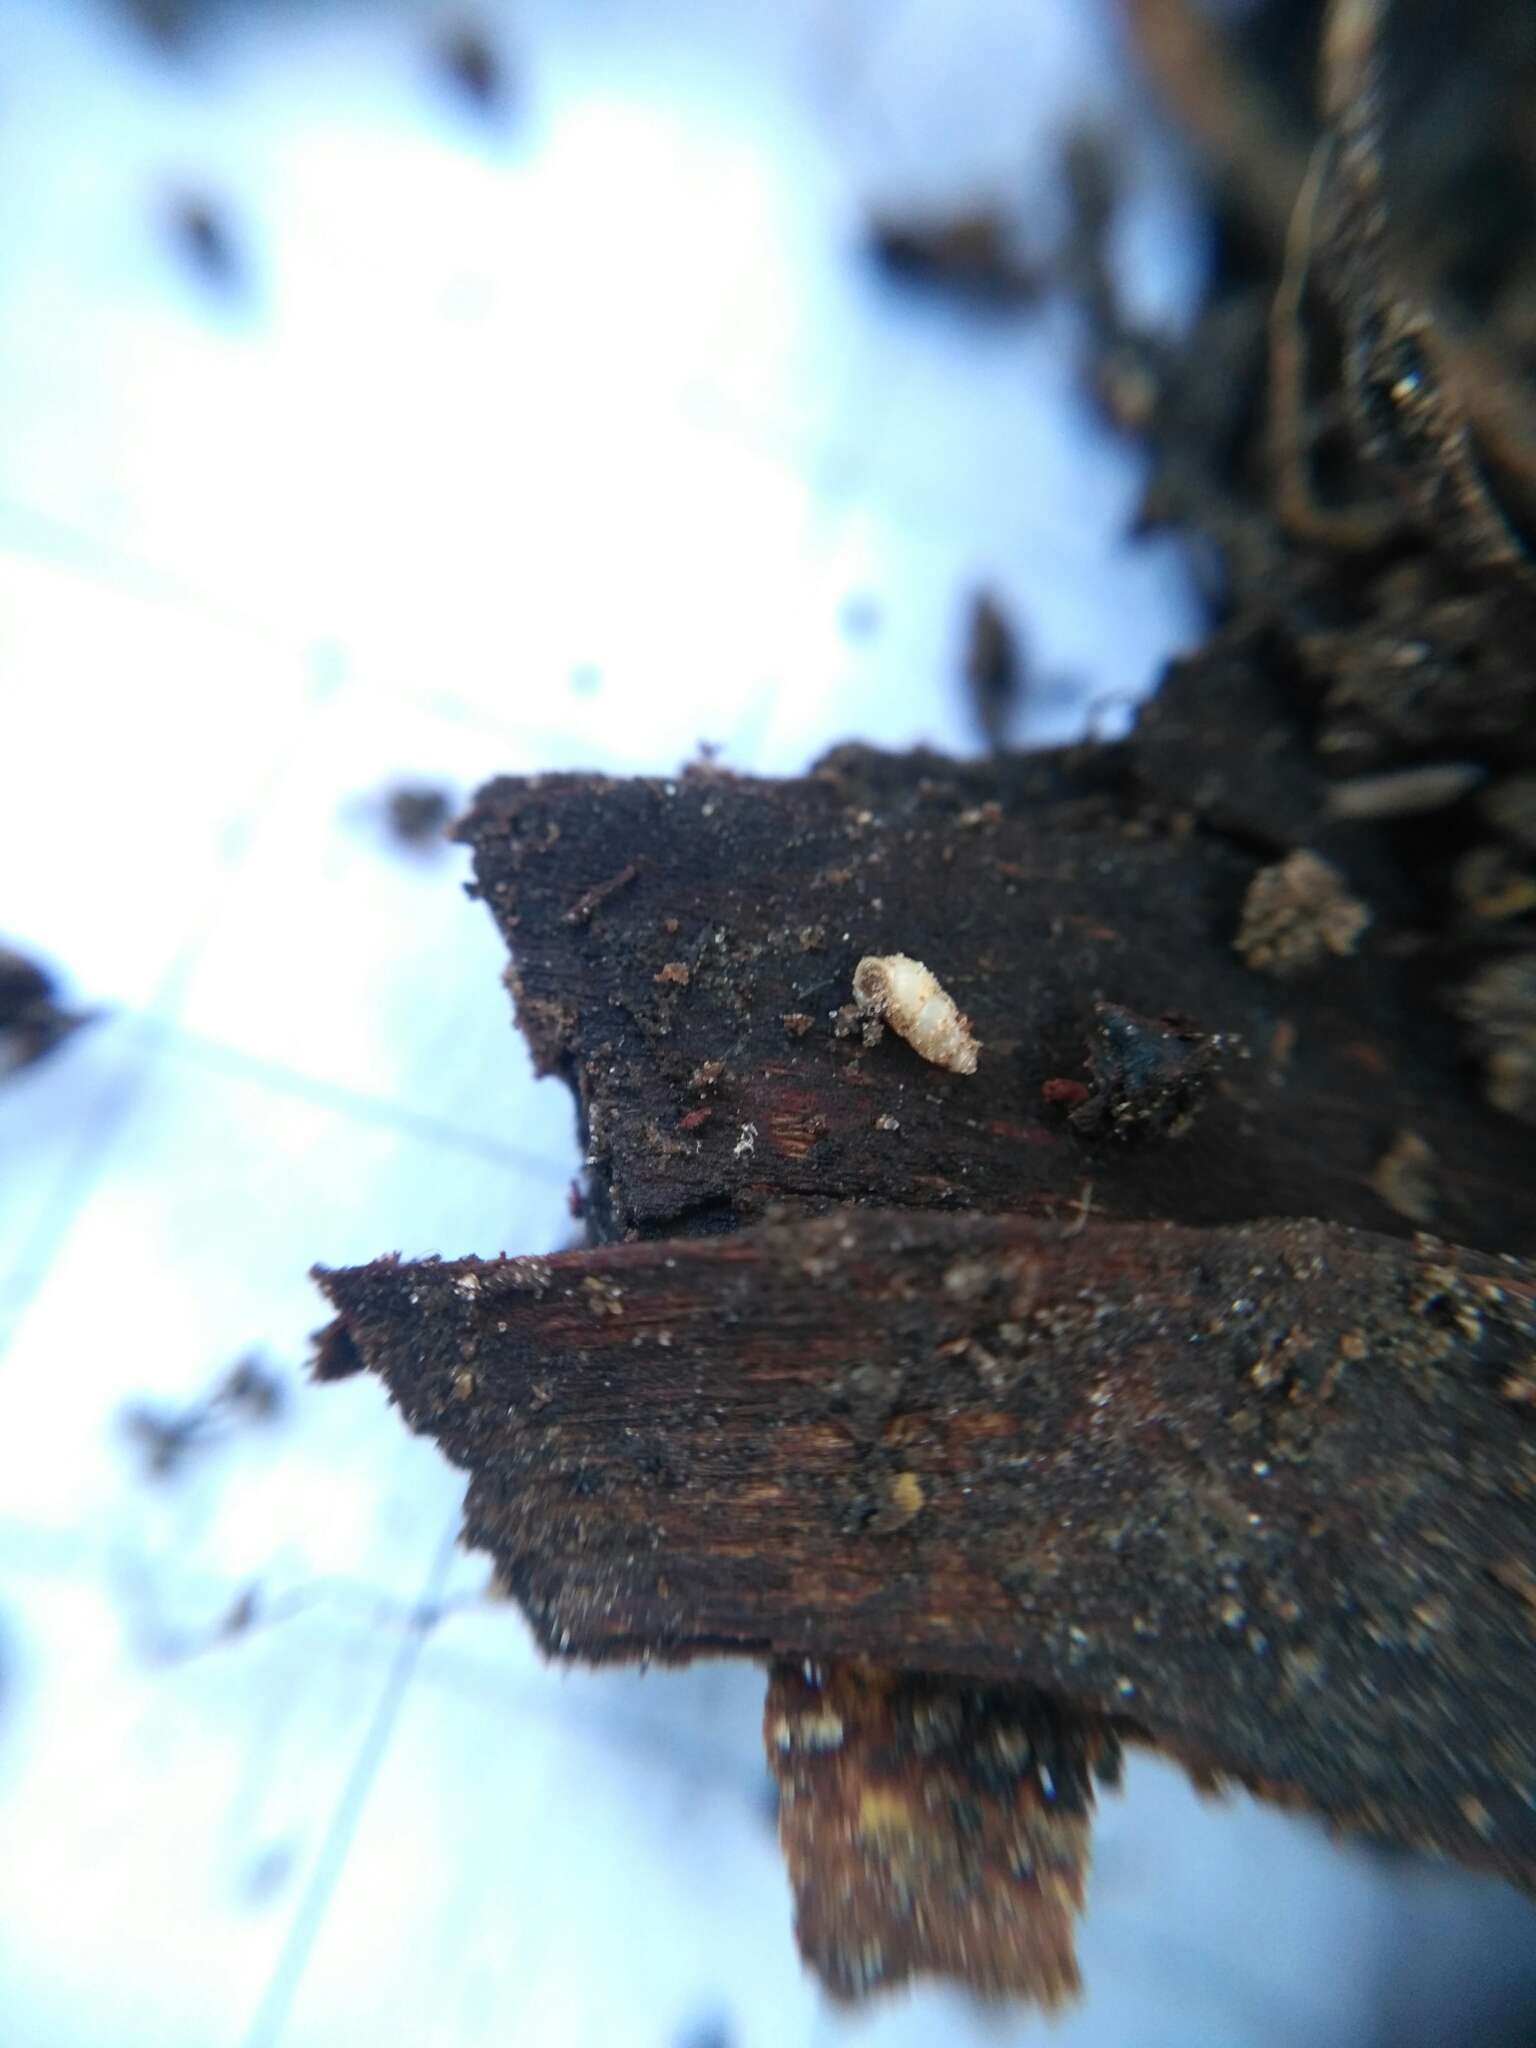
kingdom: Animalia
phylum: Mollusca
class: Gastropoda
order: Ellobiida
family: Ellobiidae
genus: Carychium
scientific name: Carychium tridentatum
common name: Long-toothed herald snail
